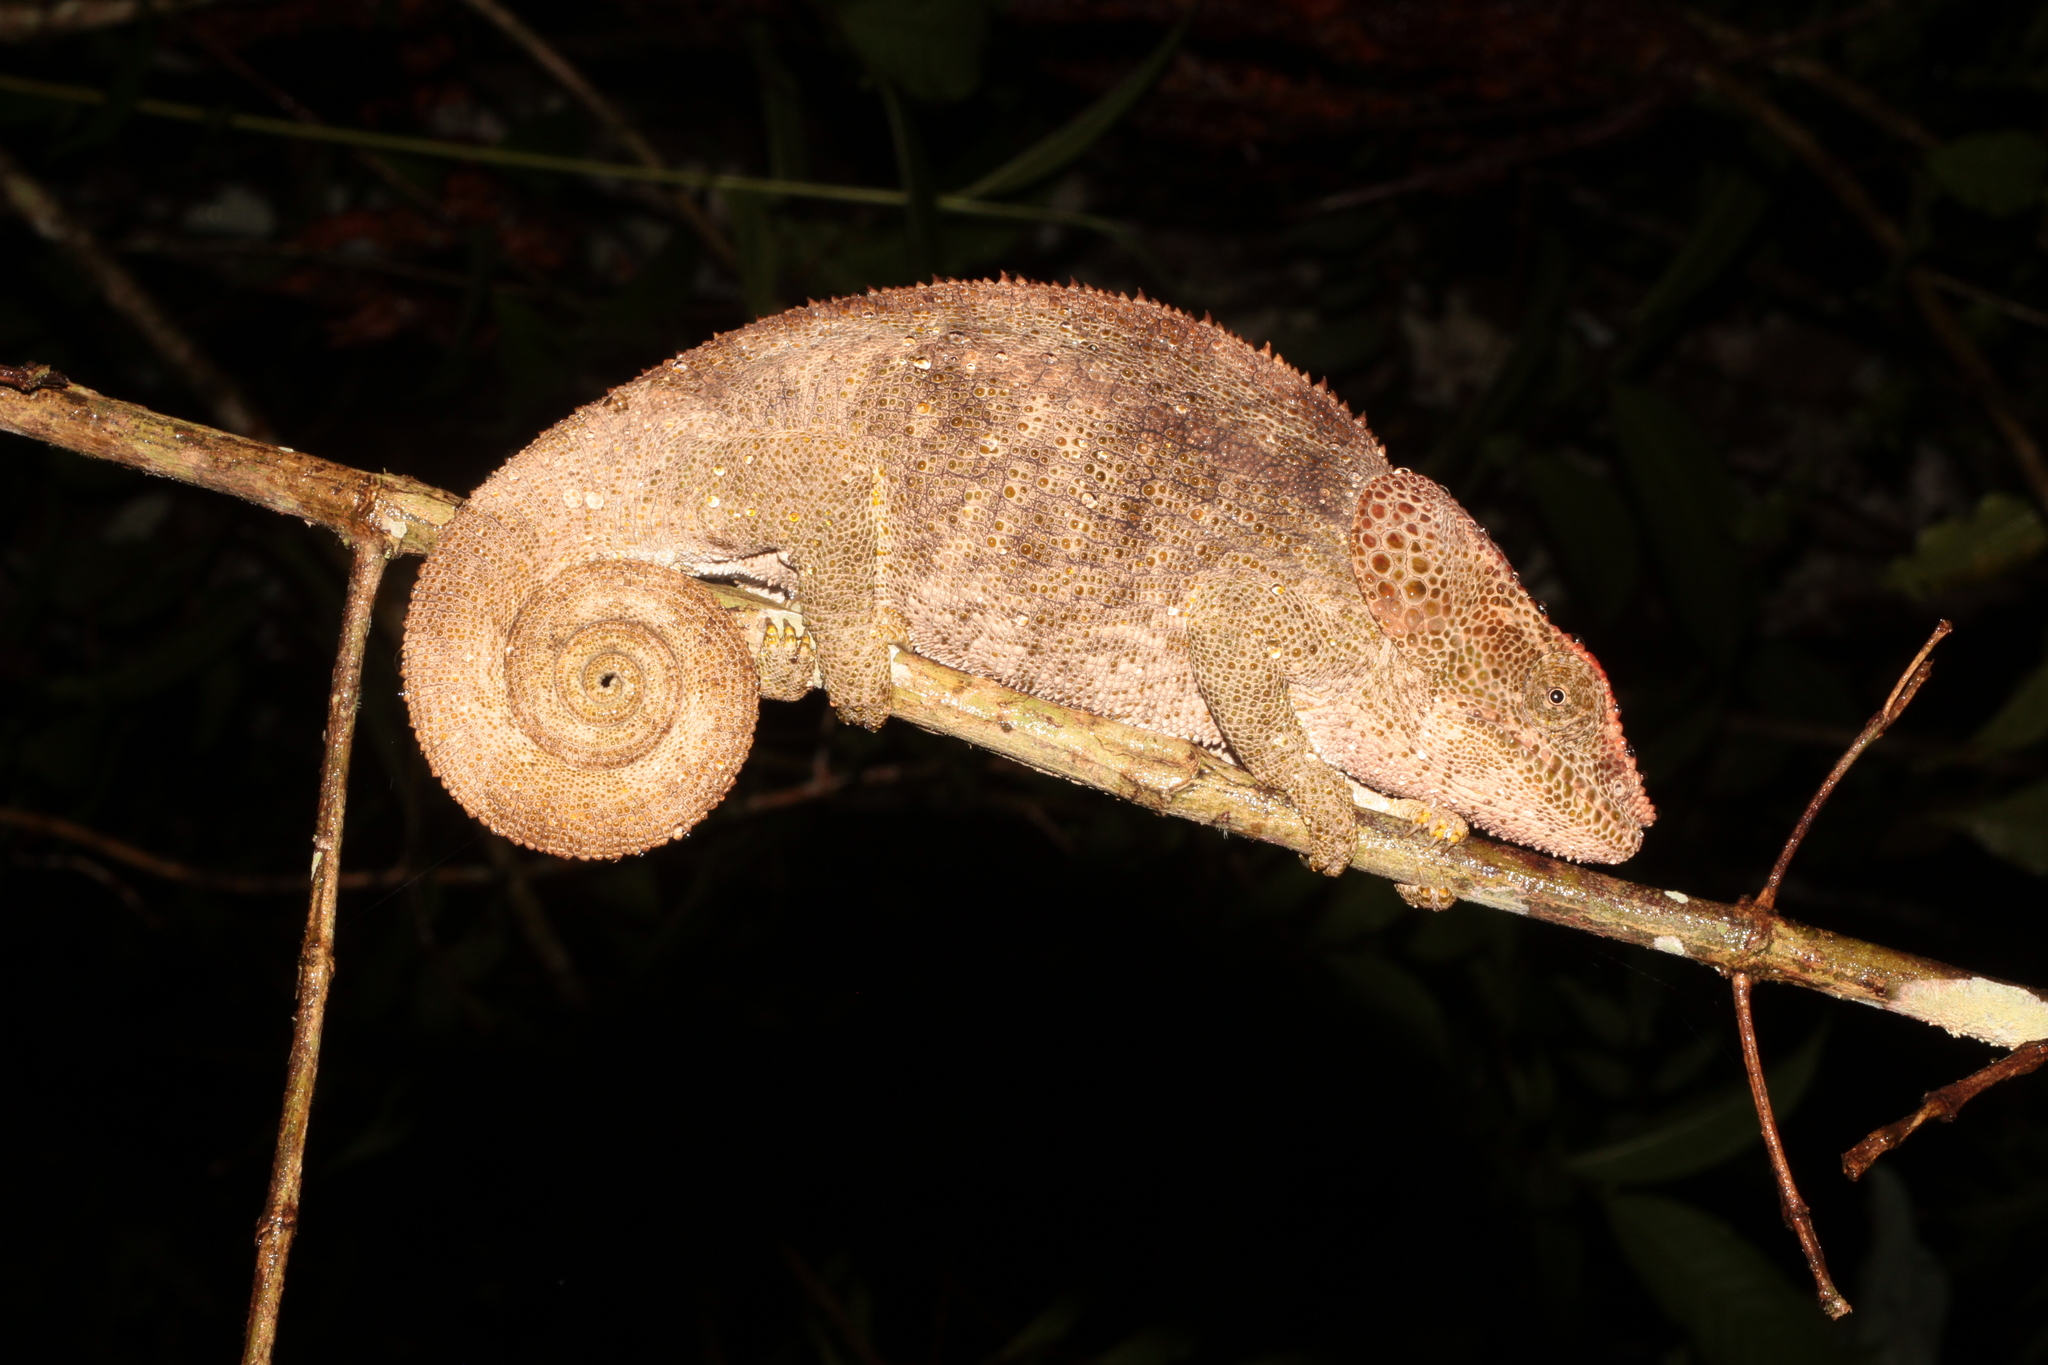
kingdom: Animalia
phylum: Chordata
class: Squamata
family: Chamaeleonidae
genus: Calumma
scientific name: Calumma brevicorne
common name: Short-horned chameleon
